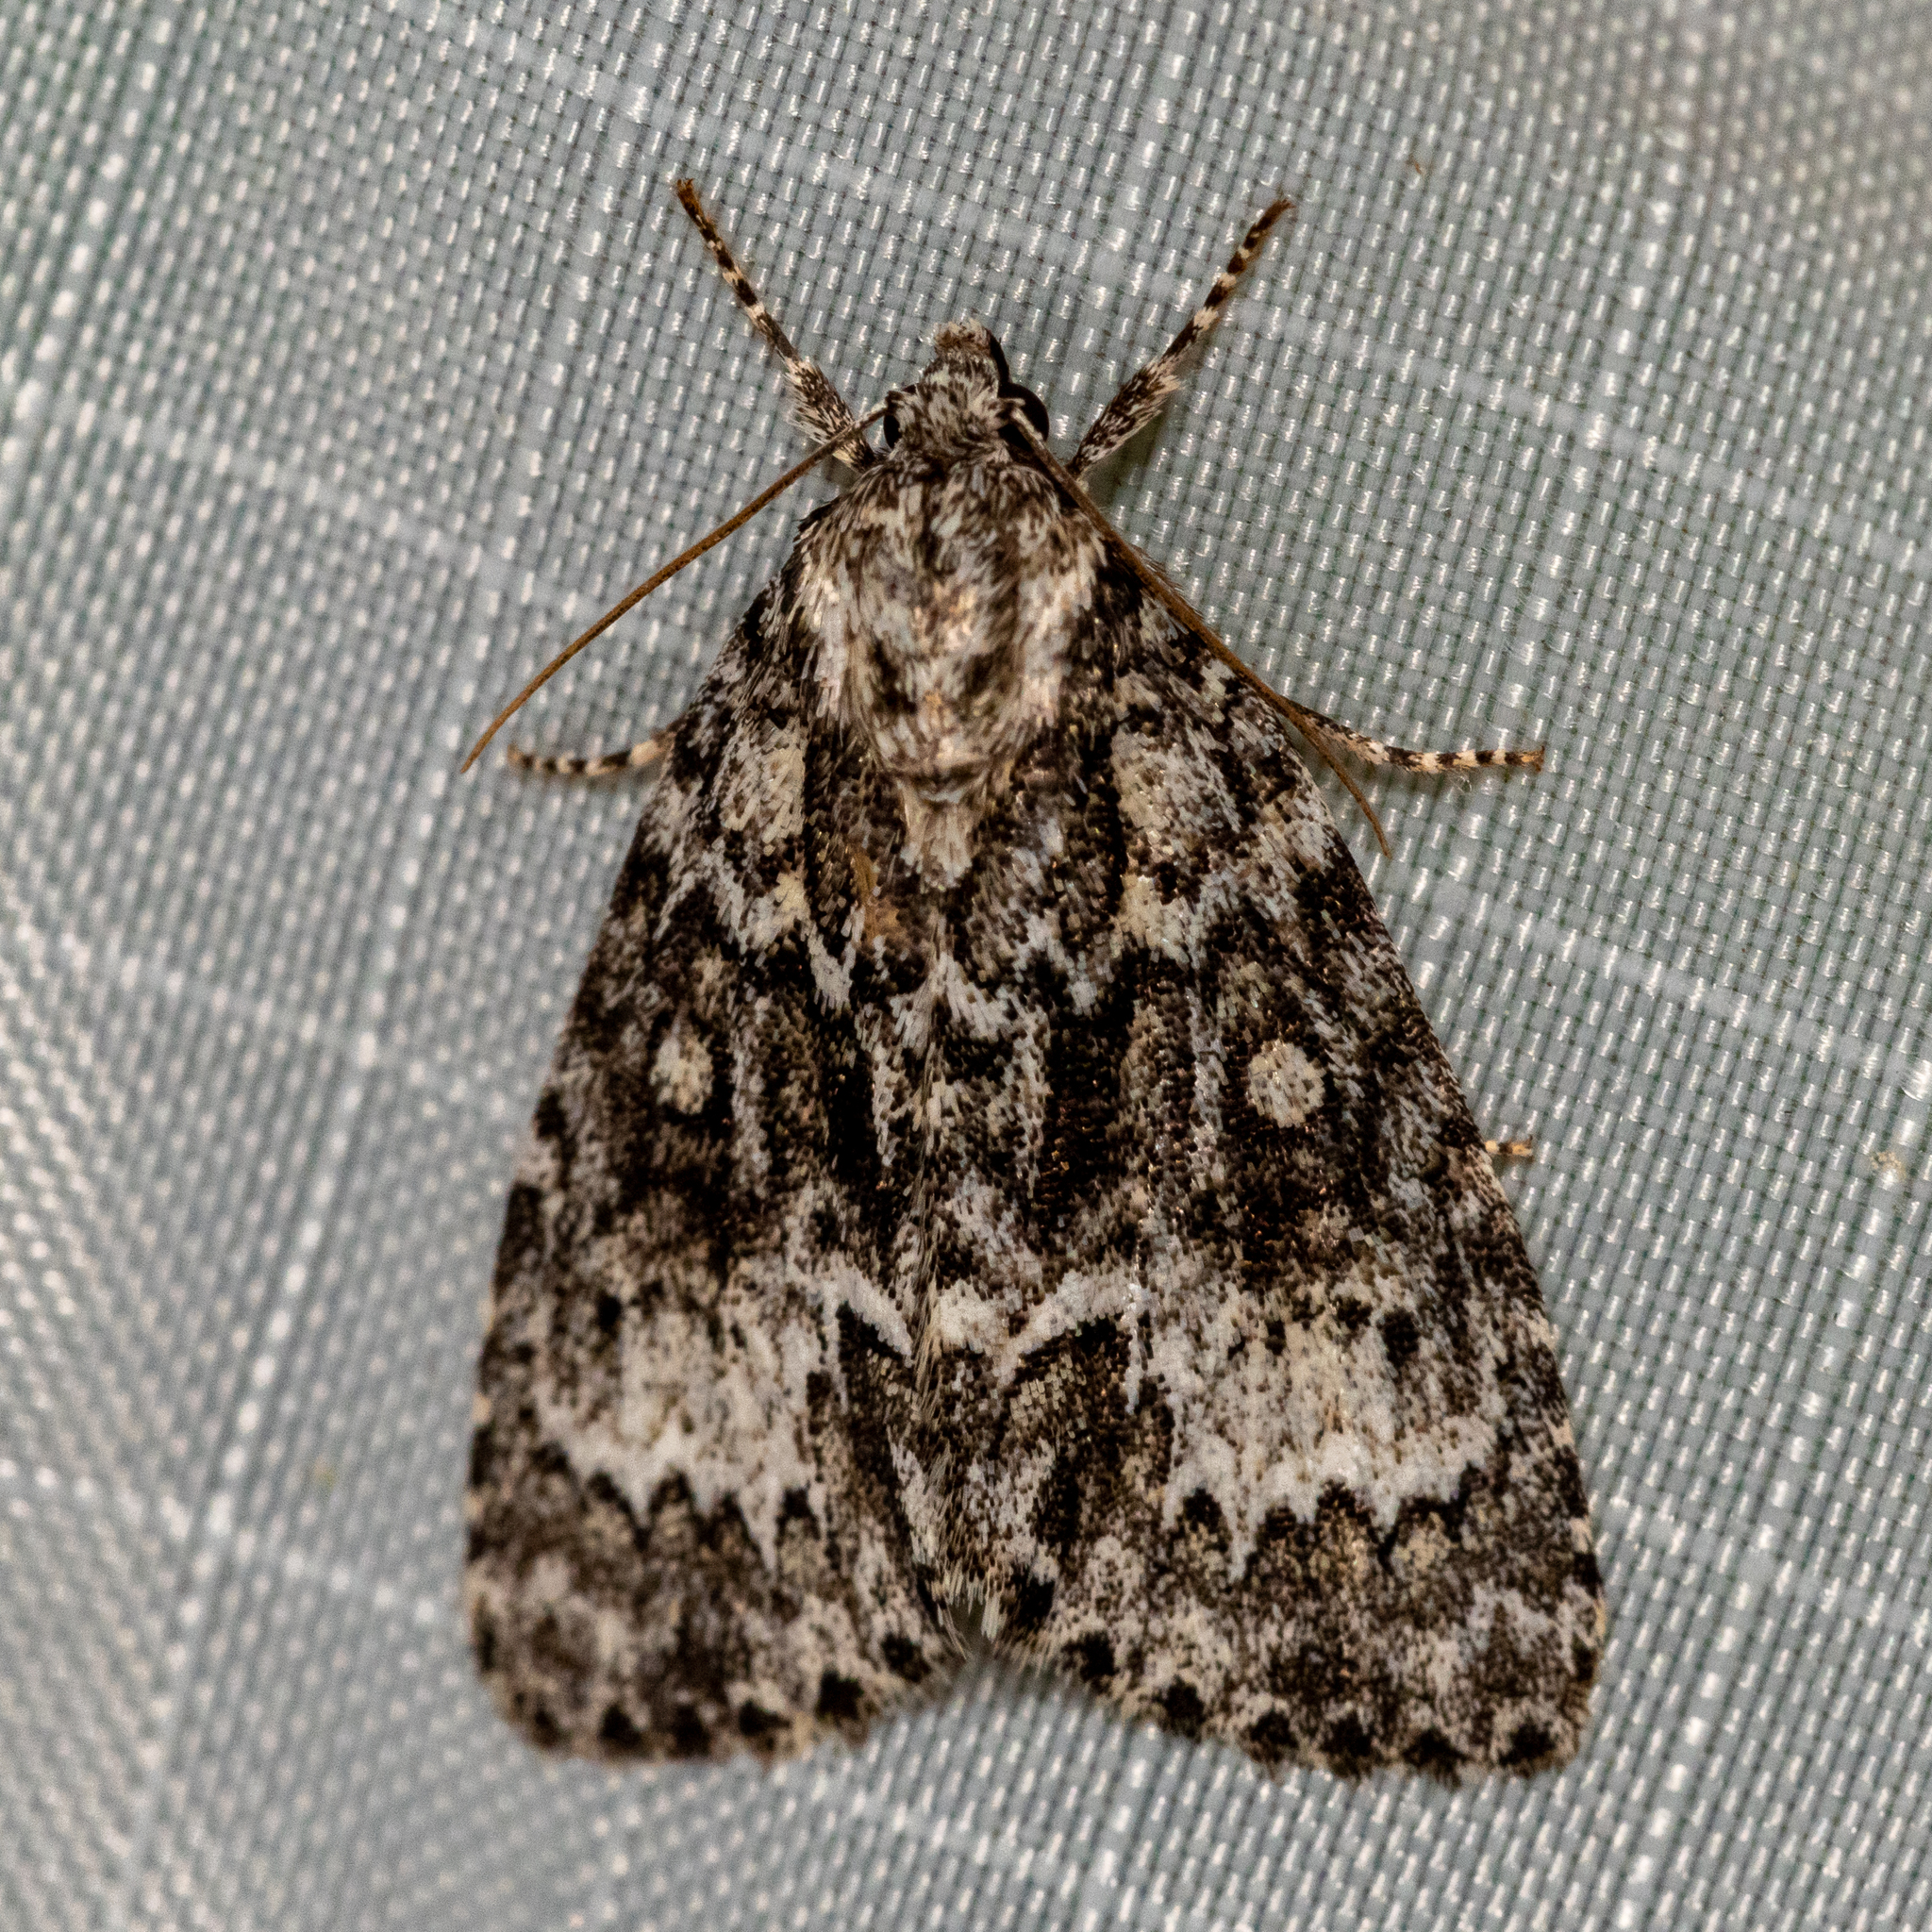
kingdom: Animalia
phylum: Arthropoda
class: Insecta
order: Lepidoptera
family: Noctuidae
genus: Acronicta
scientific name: Acronicta fragilis
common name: Fragile dagger
